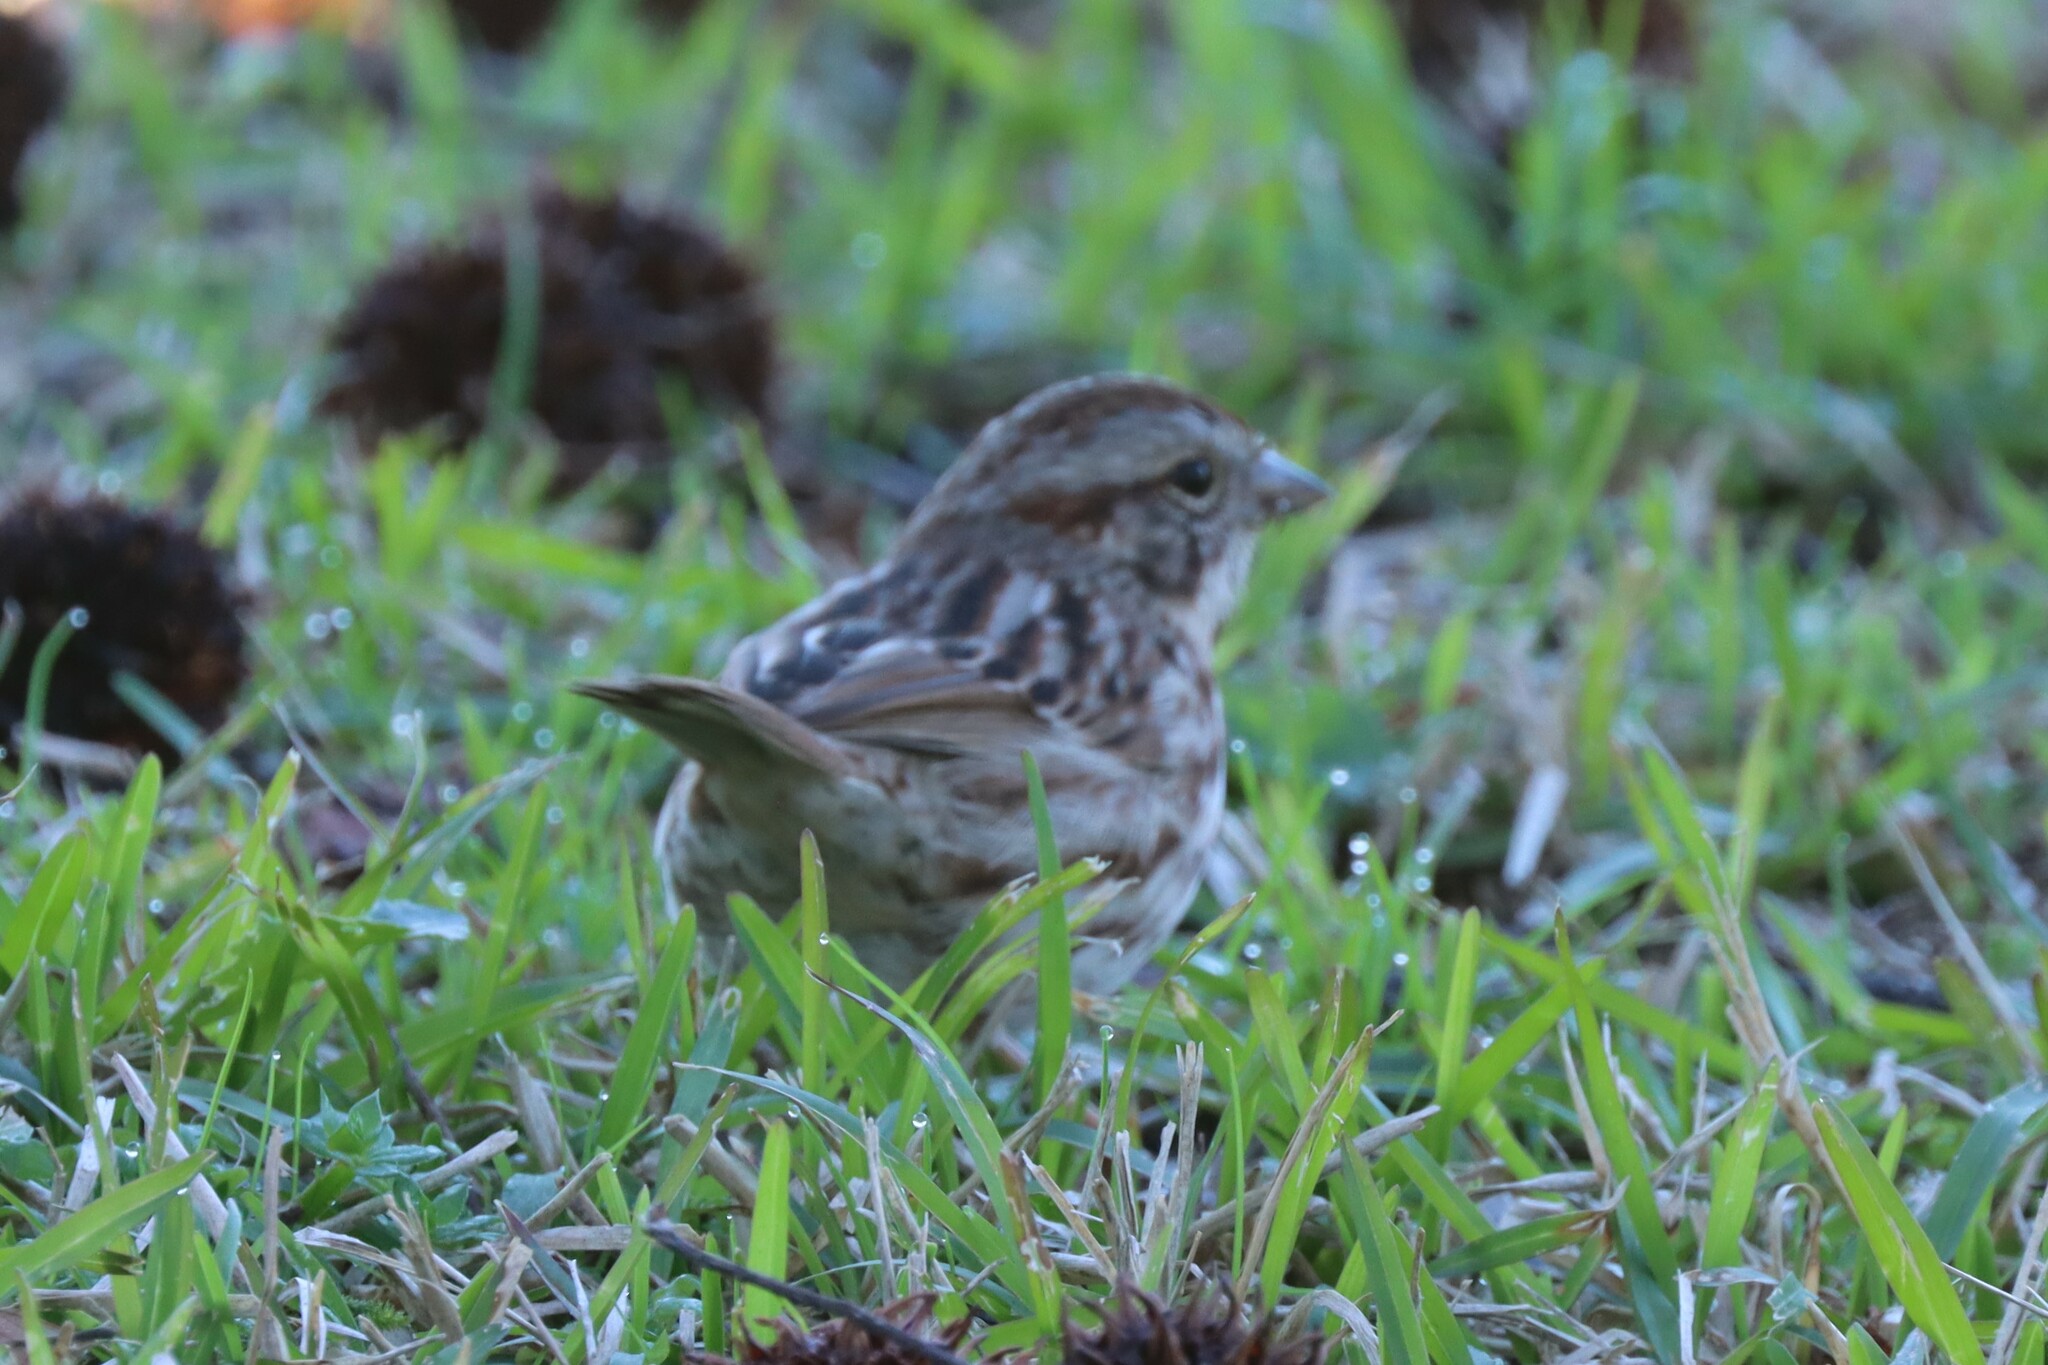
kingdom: Animalia
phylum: Chordata
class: Aves
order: Passeriformes
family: Passerellidae
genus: Melospiza
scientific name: Melospiza melodia
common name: Song sparrow
